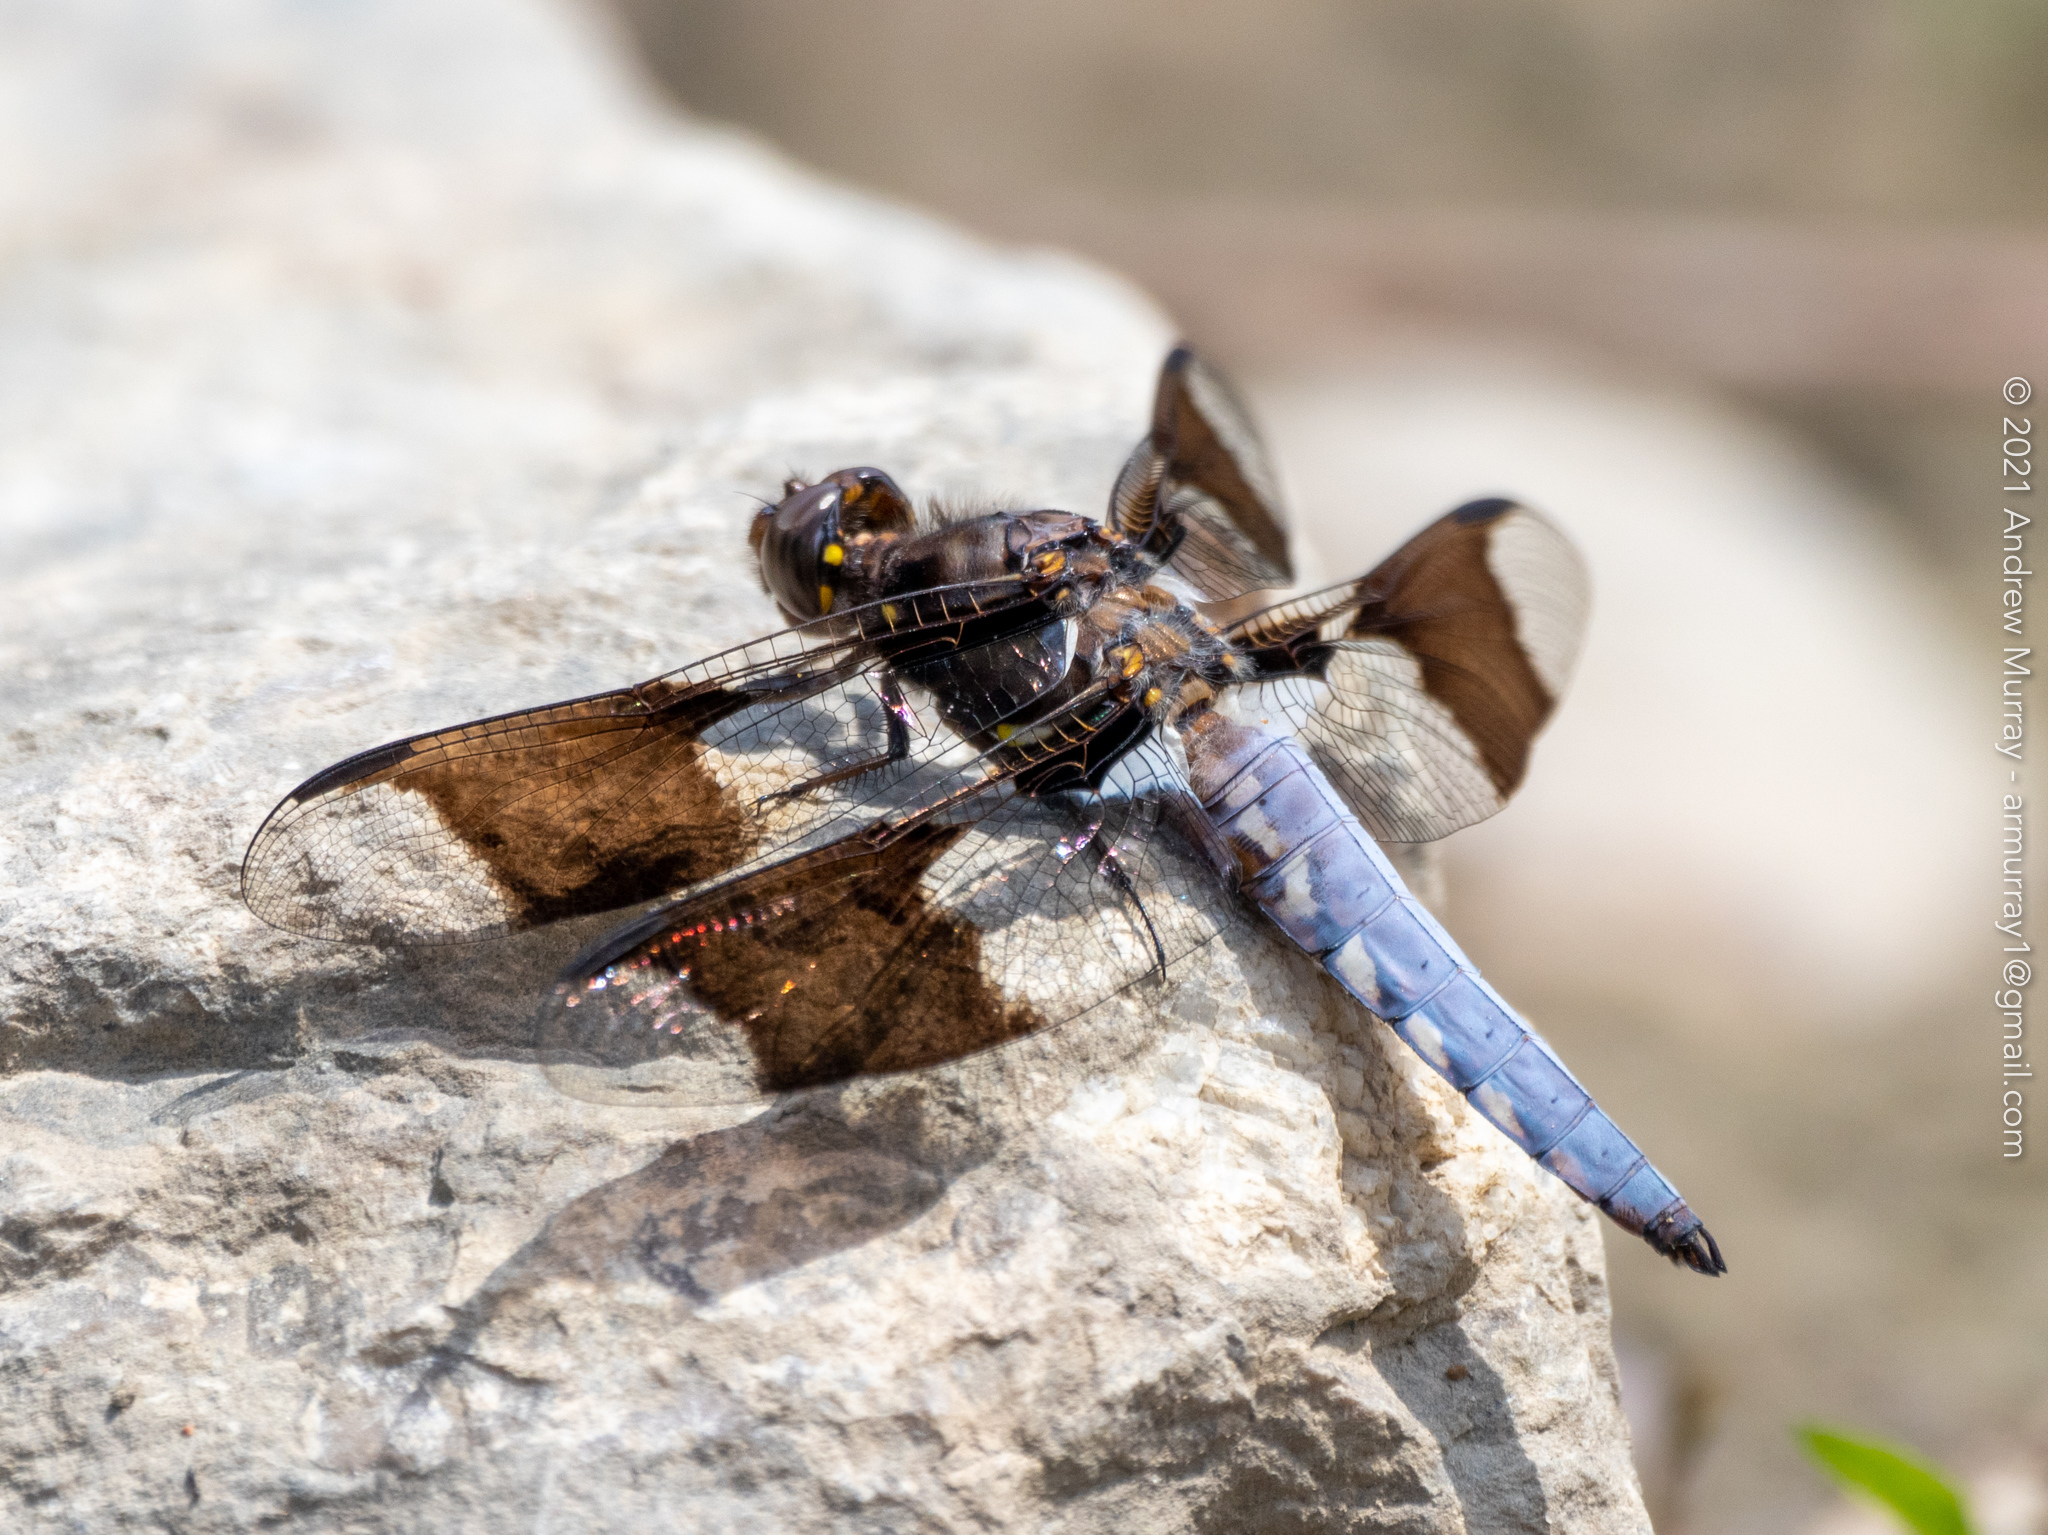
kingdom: Animalia
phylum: Arthropoda
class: Insecta
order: Odonata
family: Libellulidae
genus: Plathemis
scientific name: Plathemis lydia
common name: Common whitetail
